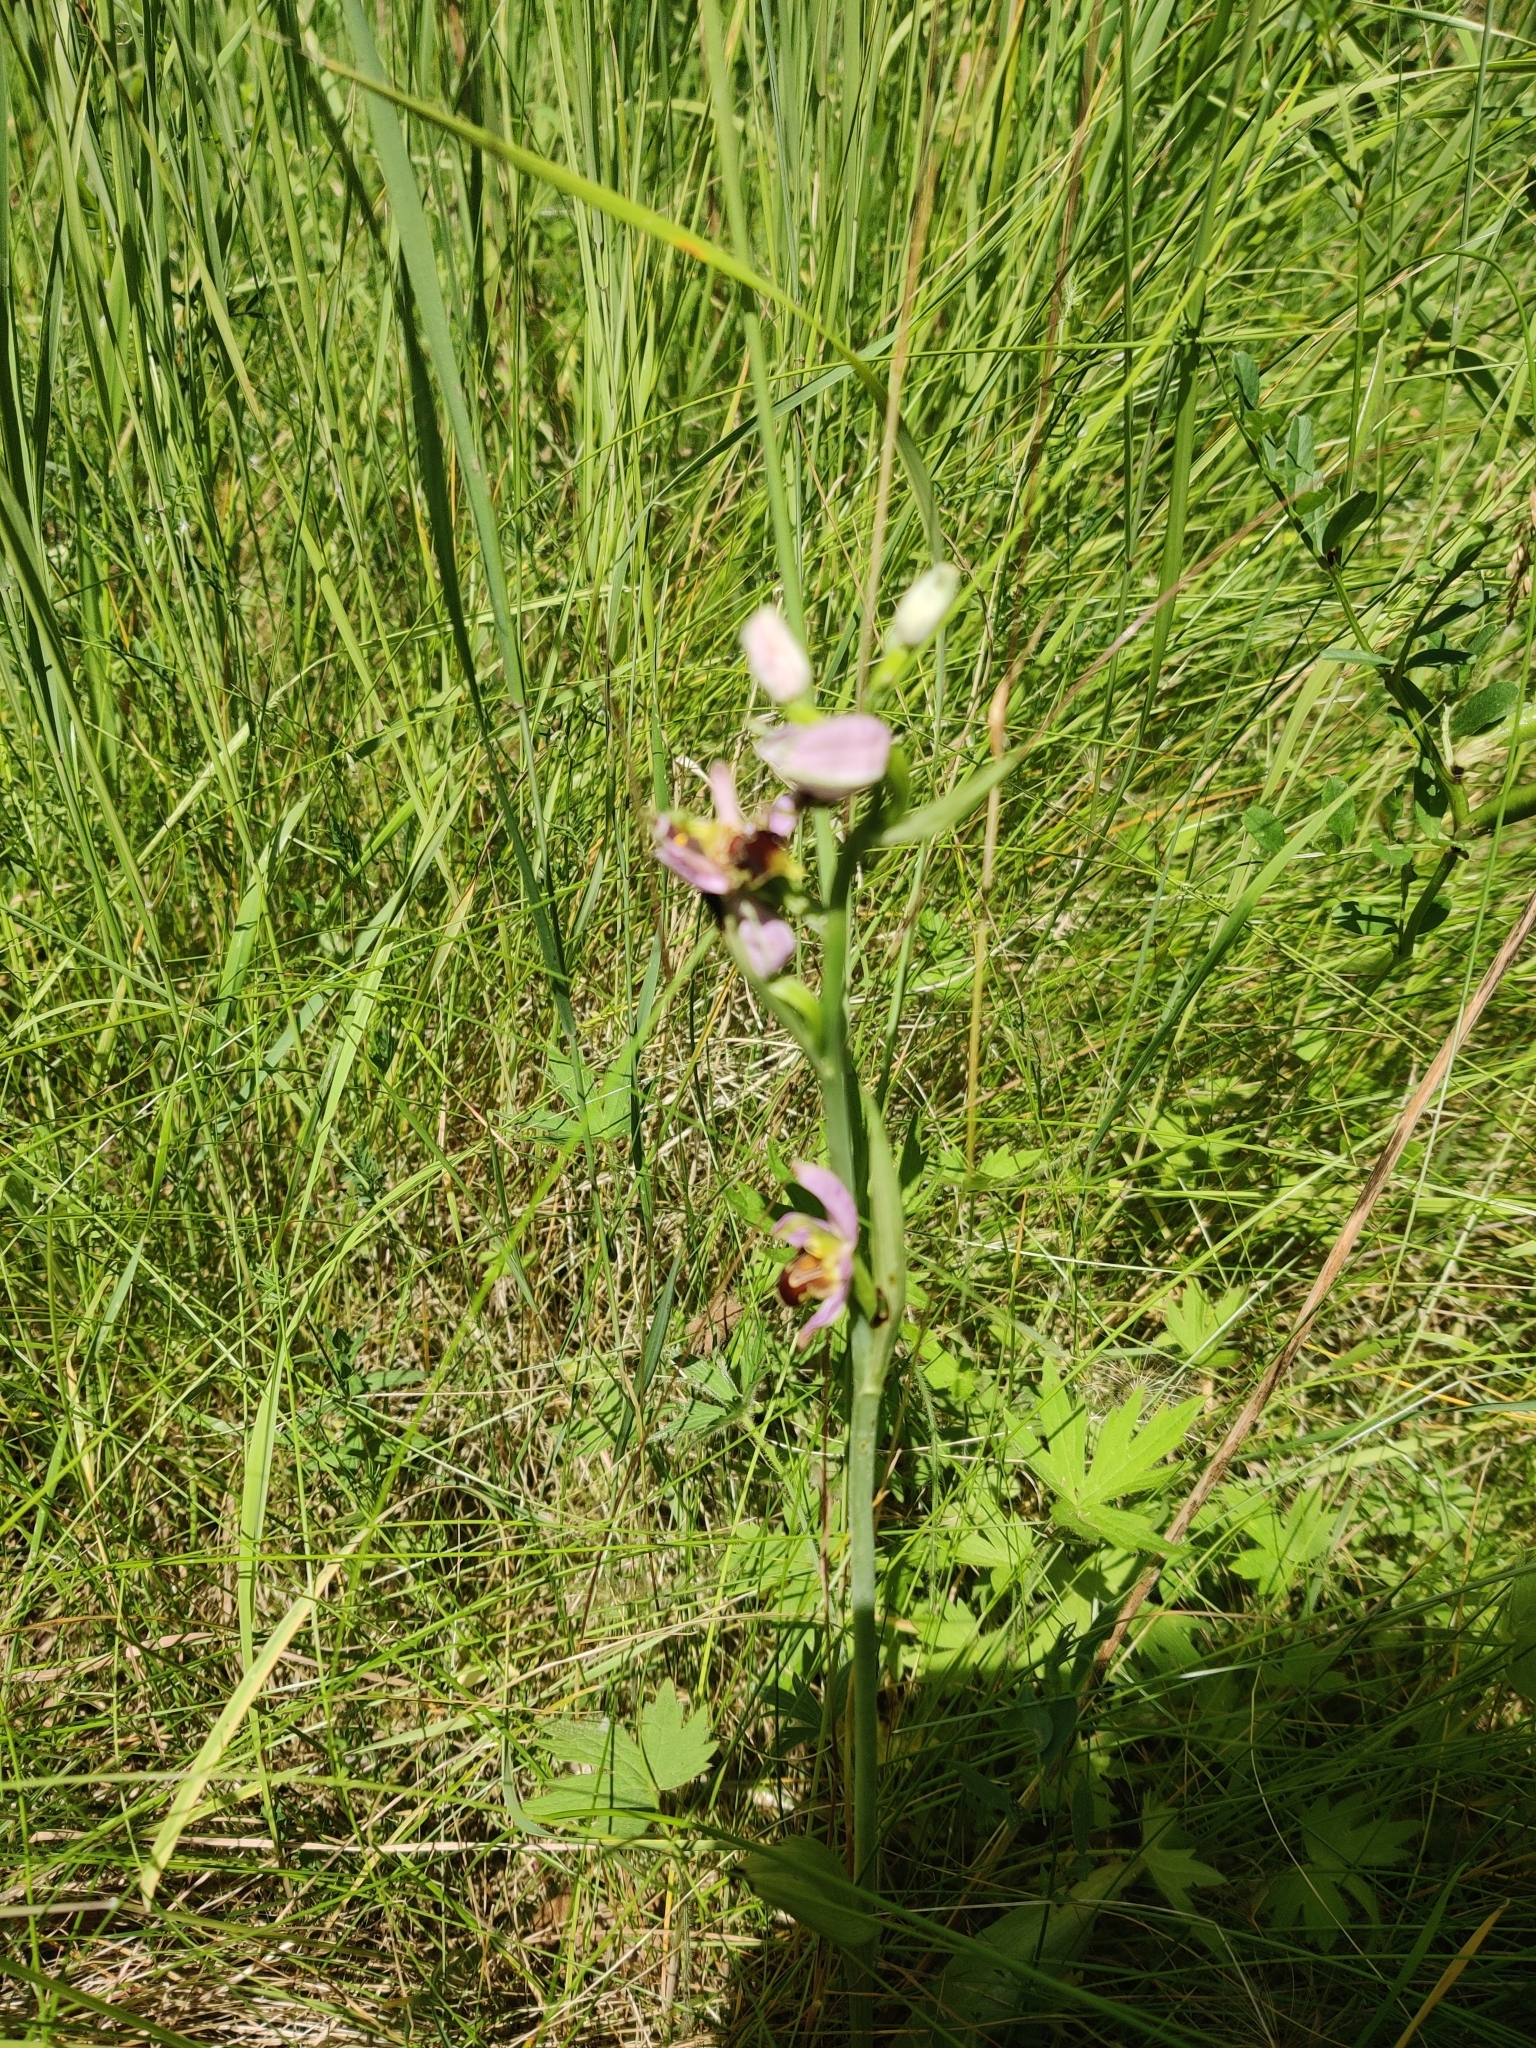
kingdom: Plantae
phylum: Tracheophyta
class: Liliopsida
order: Asparagales
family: Orchidaceae
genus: Ophrys
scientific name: Ophrys apifera
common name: Bee orchid
